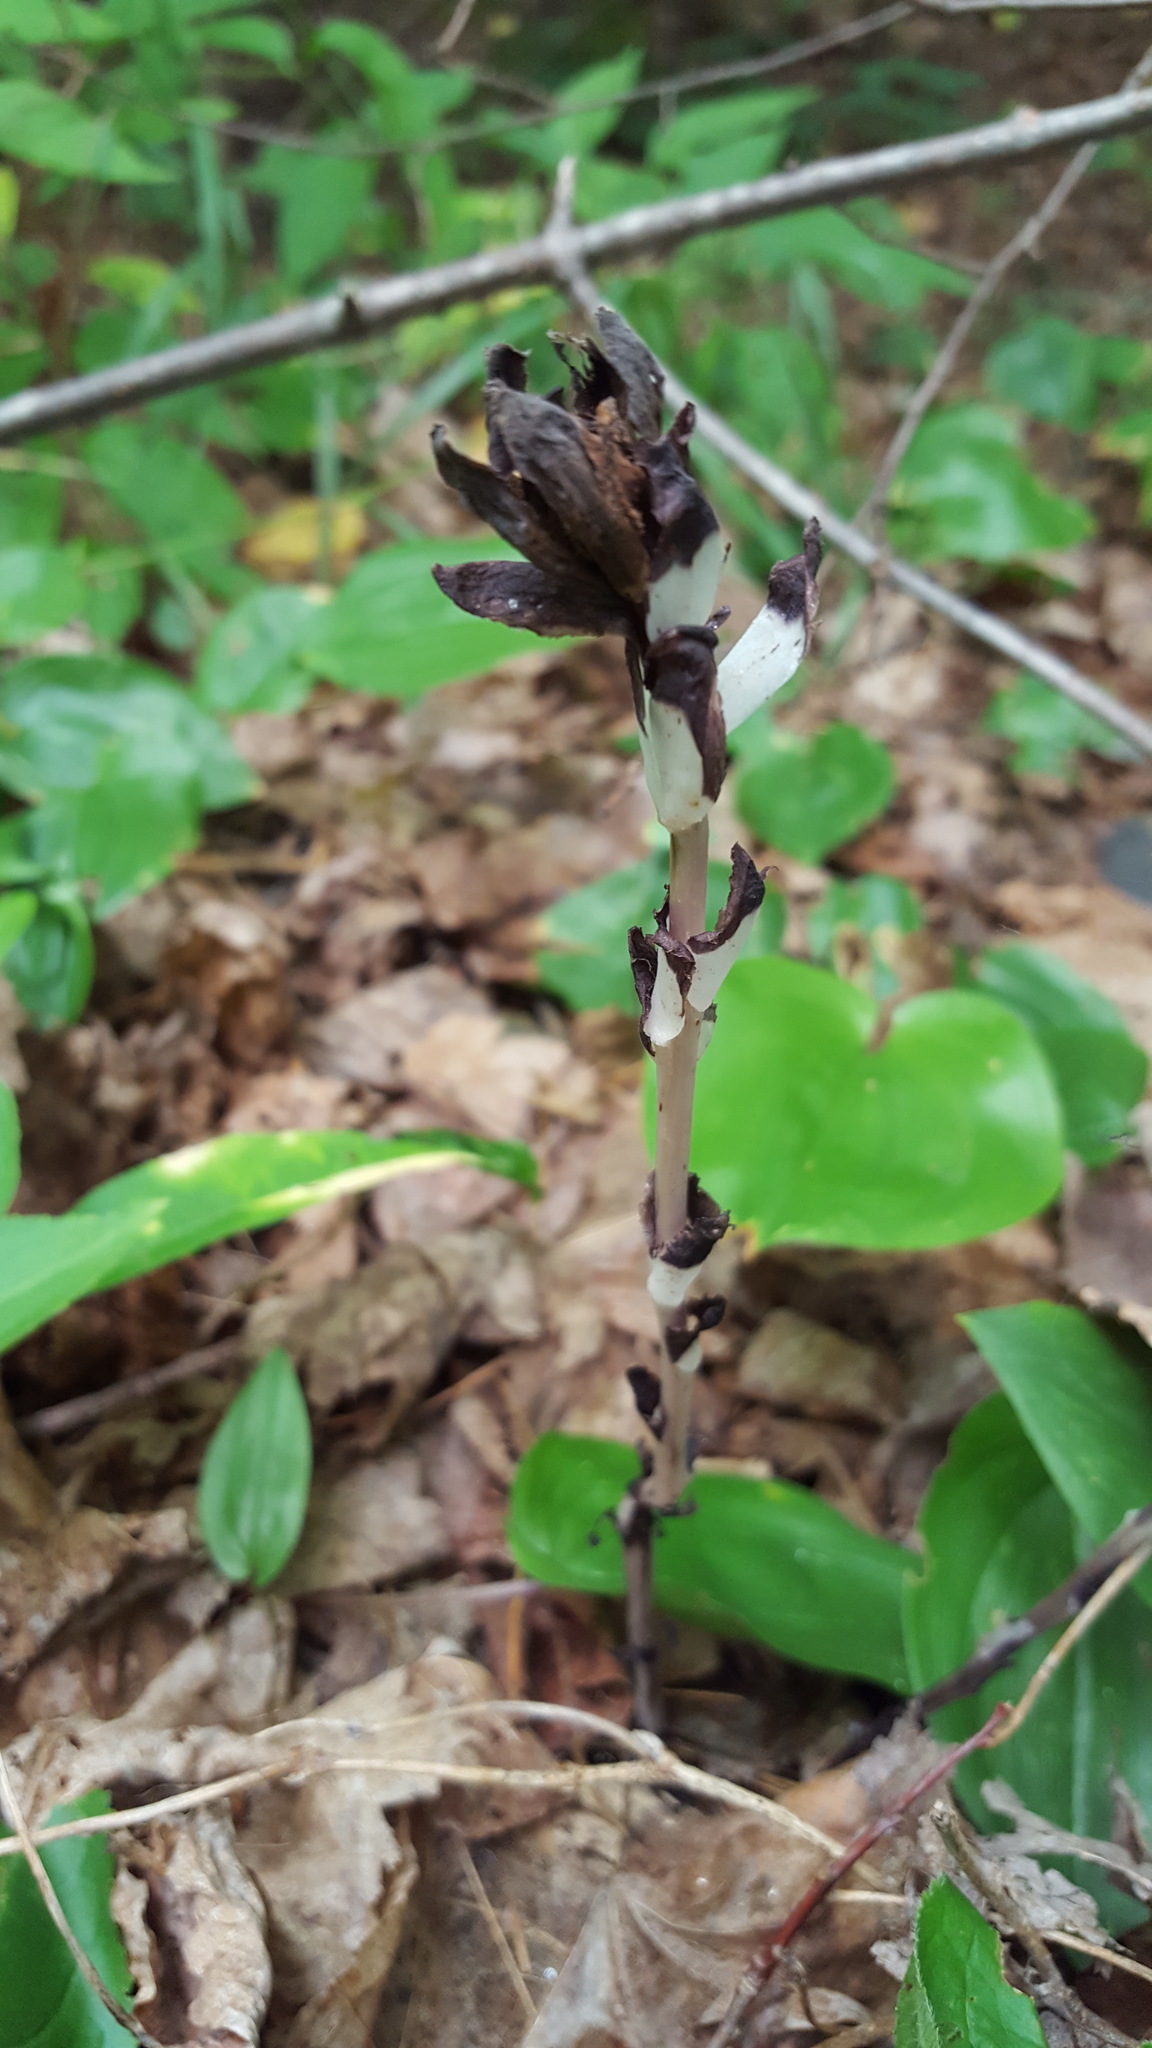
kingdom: Plantae
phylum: Tracheophyta
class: Magnoliopsida
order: Ericales
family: Ericaceae
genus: Monotropa
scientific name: Monotropa uniflora
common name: Convulsion root
